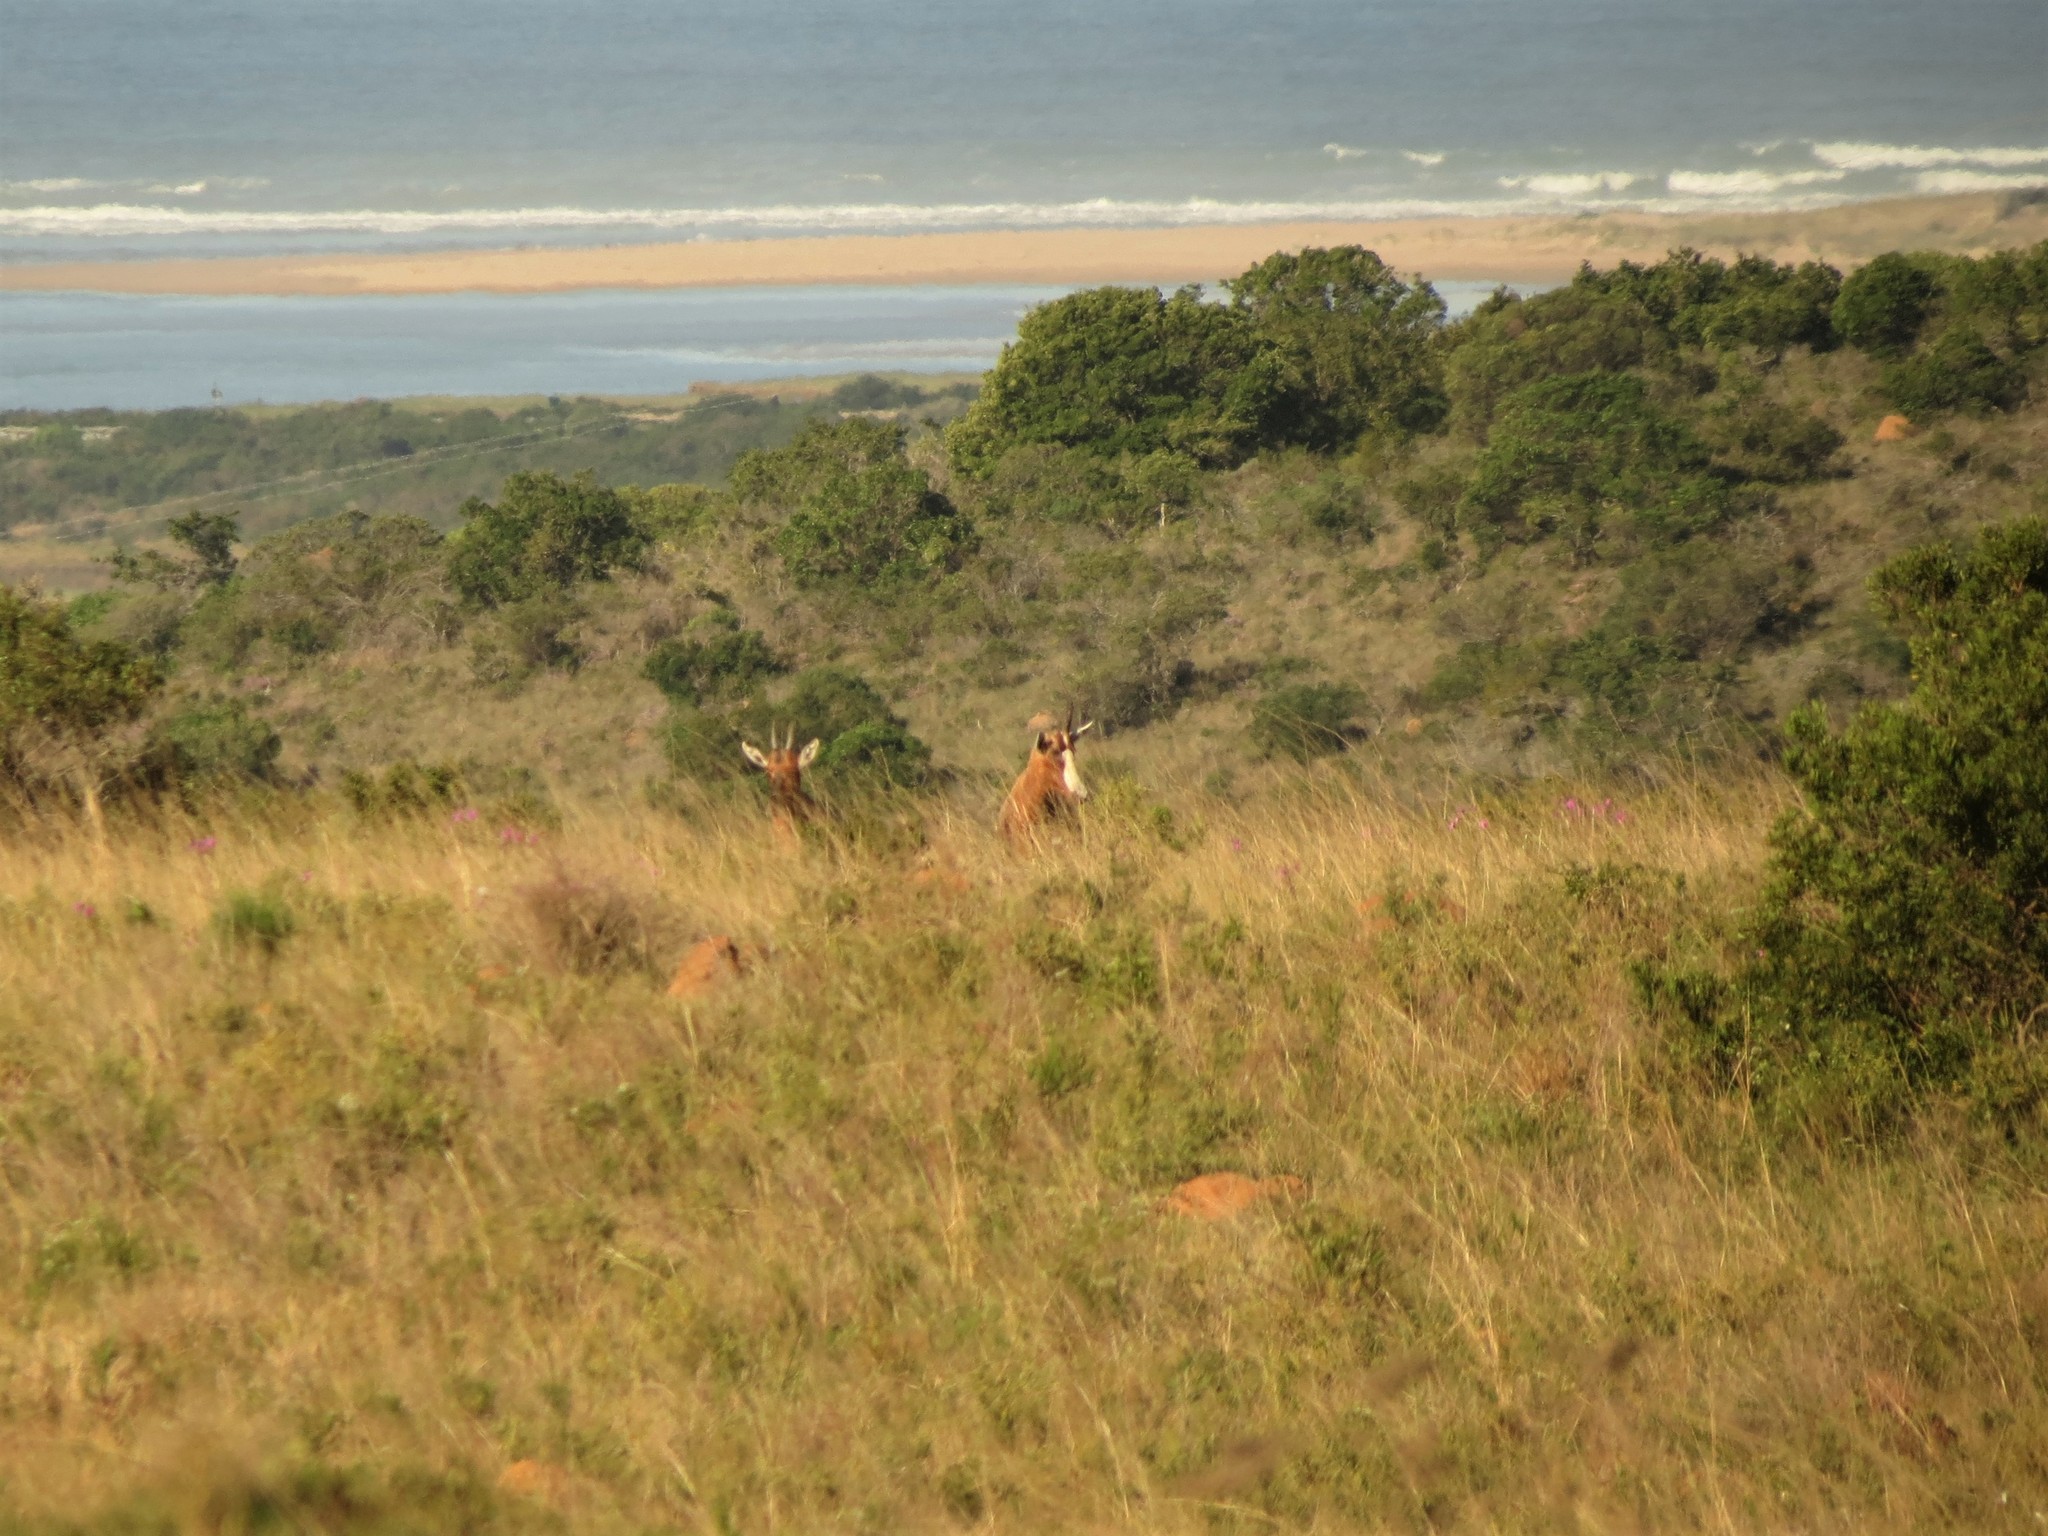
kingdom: Animalia
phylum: Chordata
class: Mammalia
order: Artiodactyla
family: Bovidae
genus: Damaliscus
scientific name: Damaliscus pygargus
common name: Bontebok
